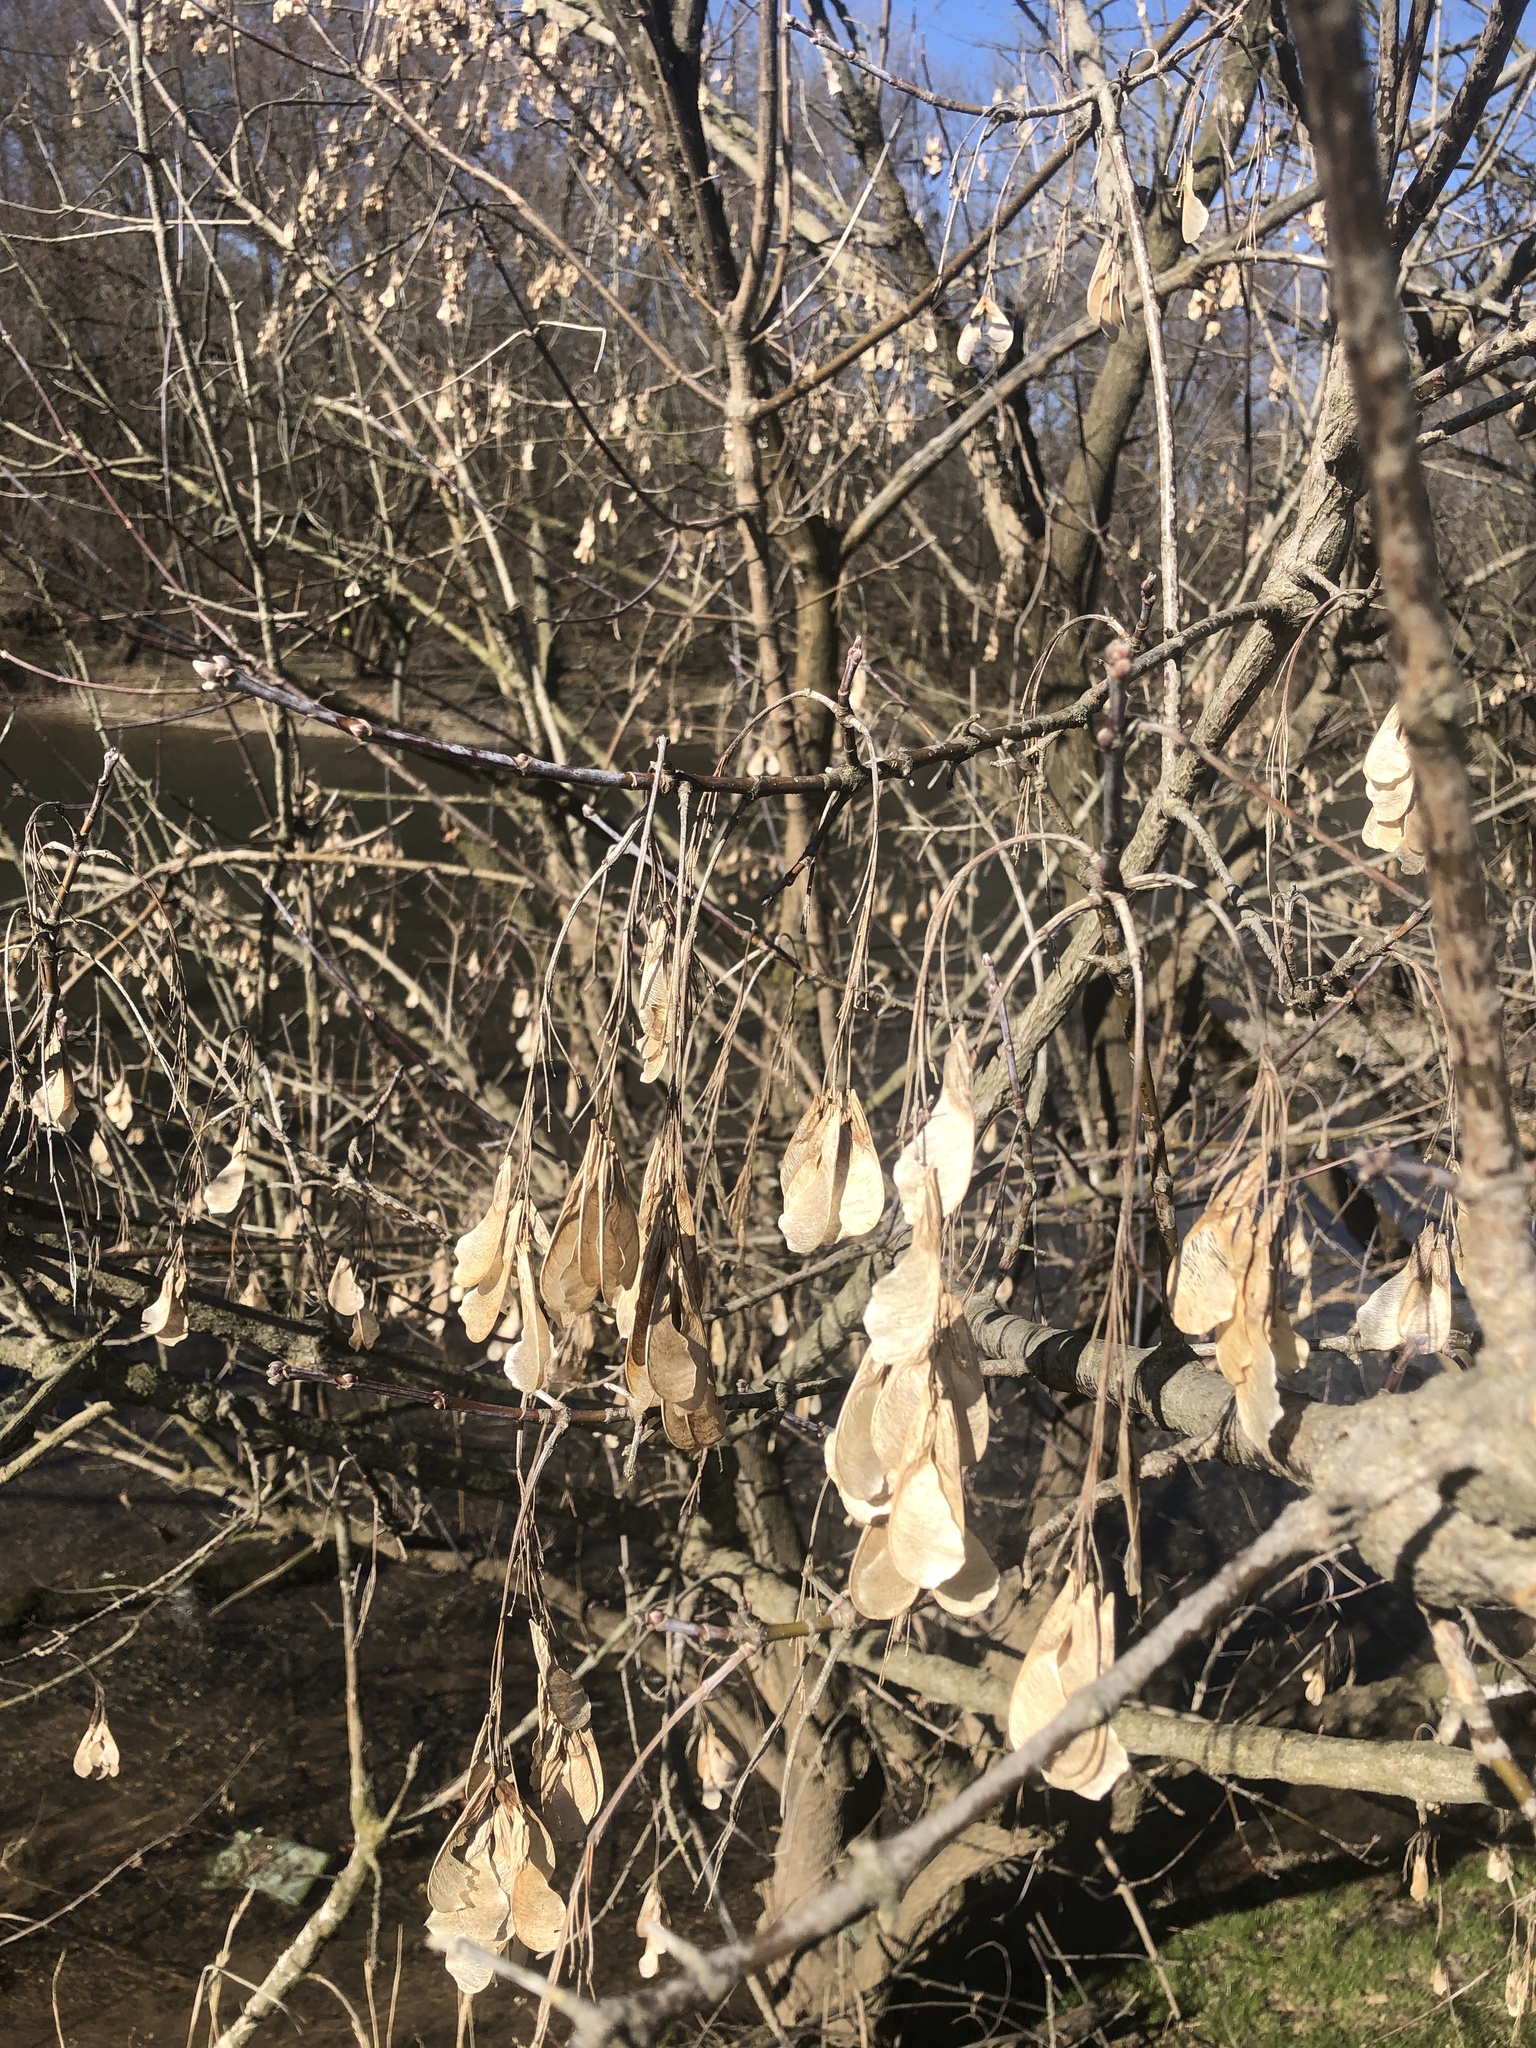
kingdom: Plantae
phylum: Tracheophyta
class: Magnoliopsida
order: Sapindales
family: Sapindaceae
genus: Acer
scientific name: Acer negundo
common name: Ashleaf maple
